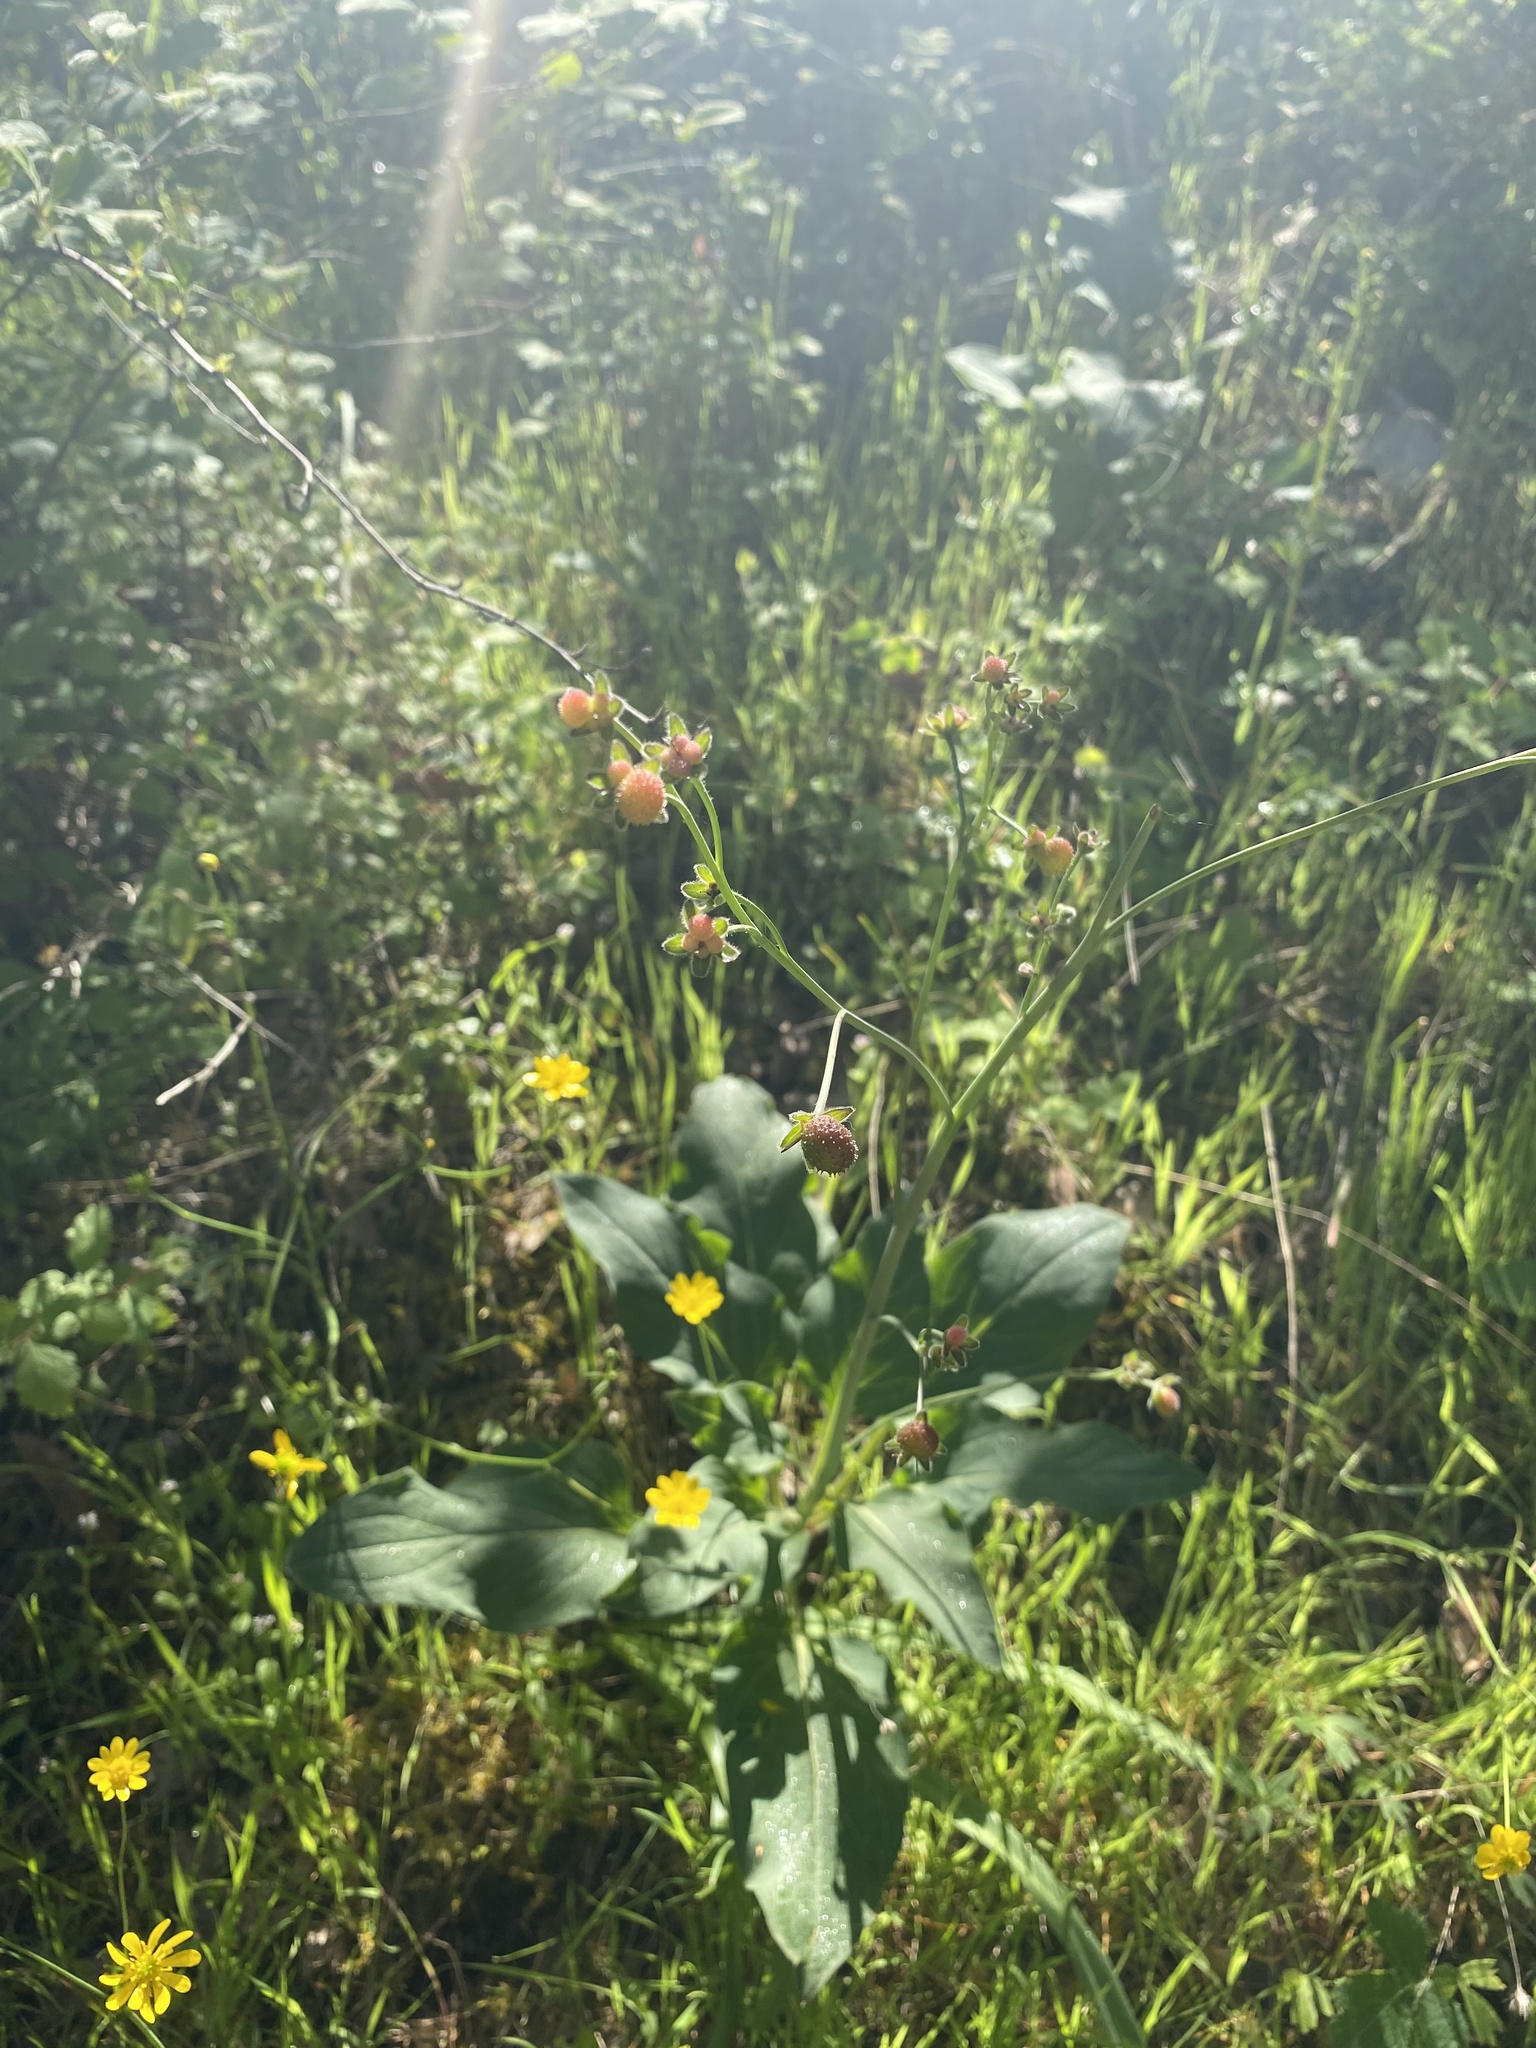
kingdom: Plantae
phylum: Tracheophyta
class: Magnoliopsida
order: Boraginales
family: Boraginaceae
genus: Adelinia
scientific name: Adelinia grande
